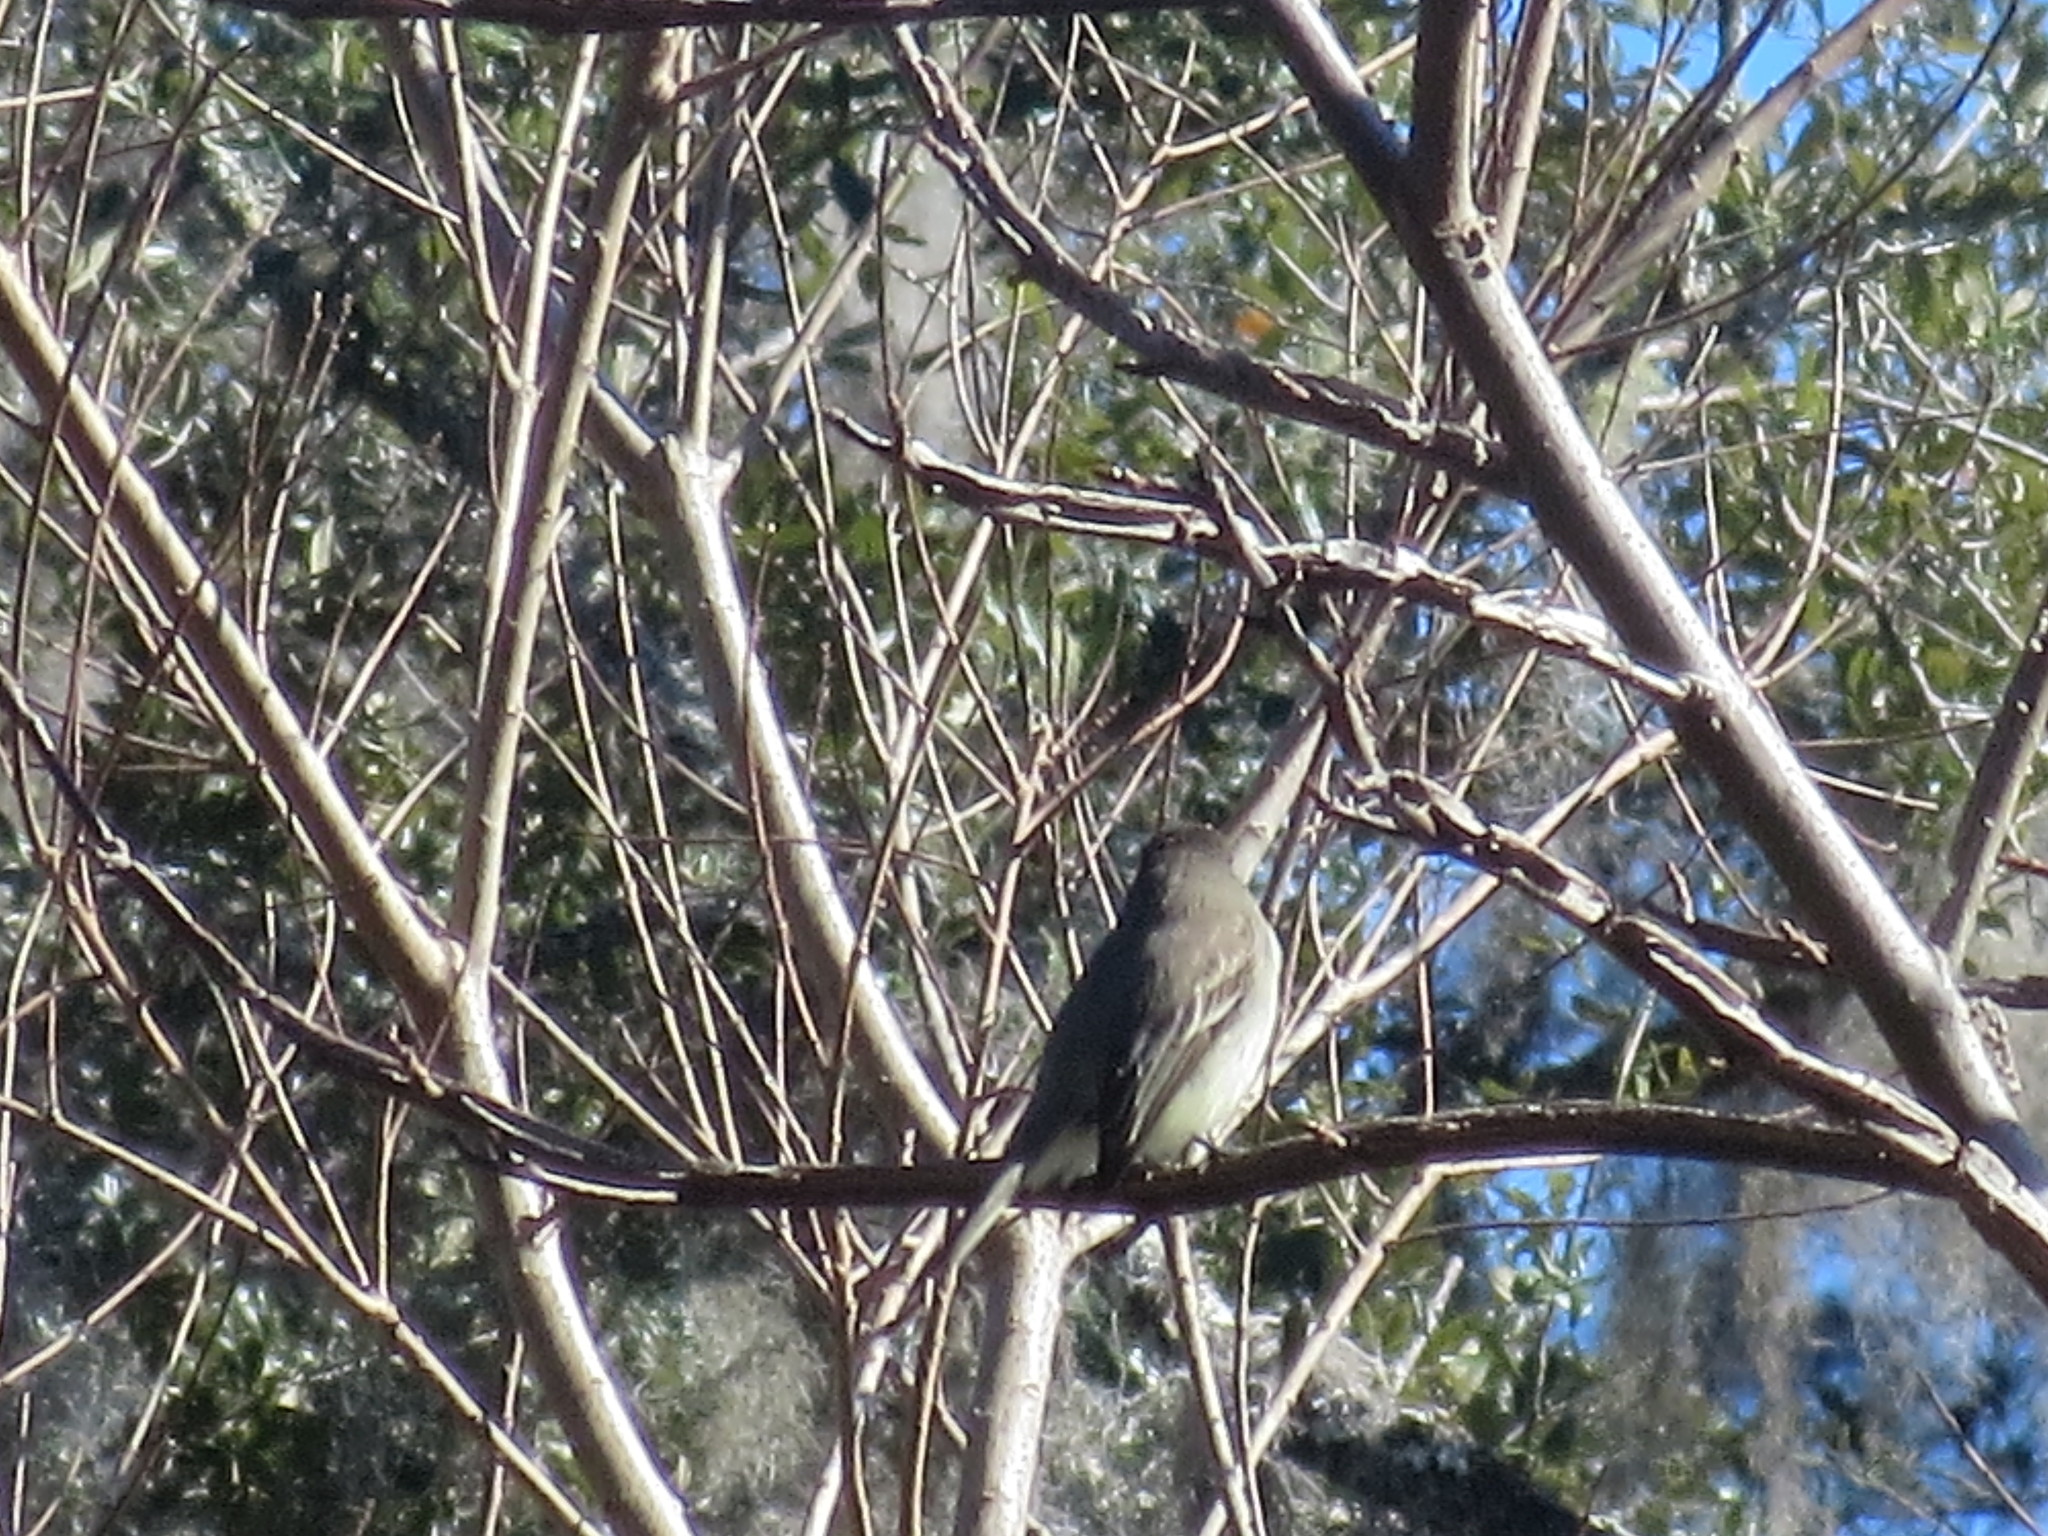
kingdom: Animalia
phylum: Chordata
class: Aves
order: Passeriformes
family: Tyrannidae
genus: Sayornis
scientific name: Sayornis phoebe
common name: Eastern phoebe
